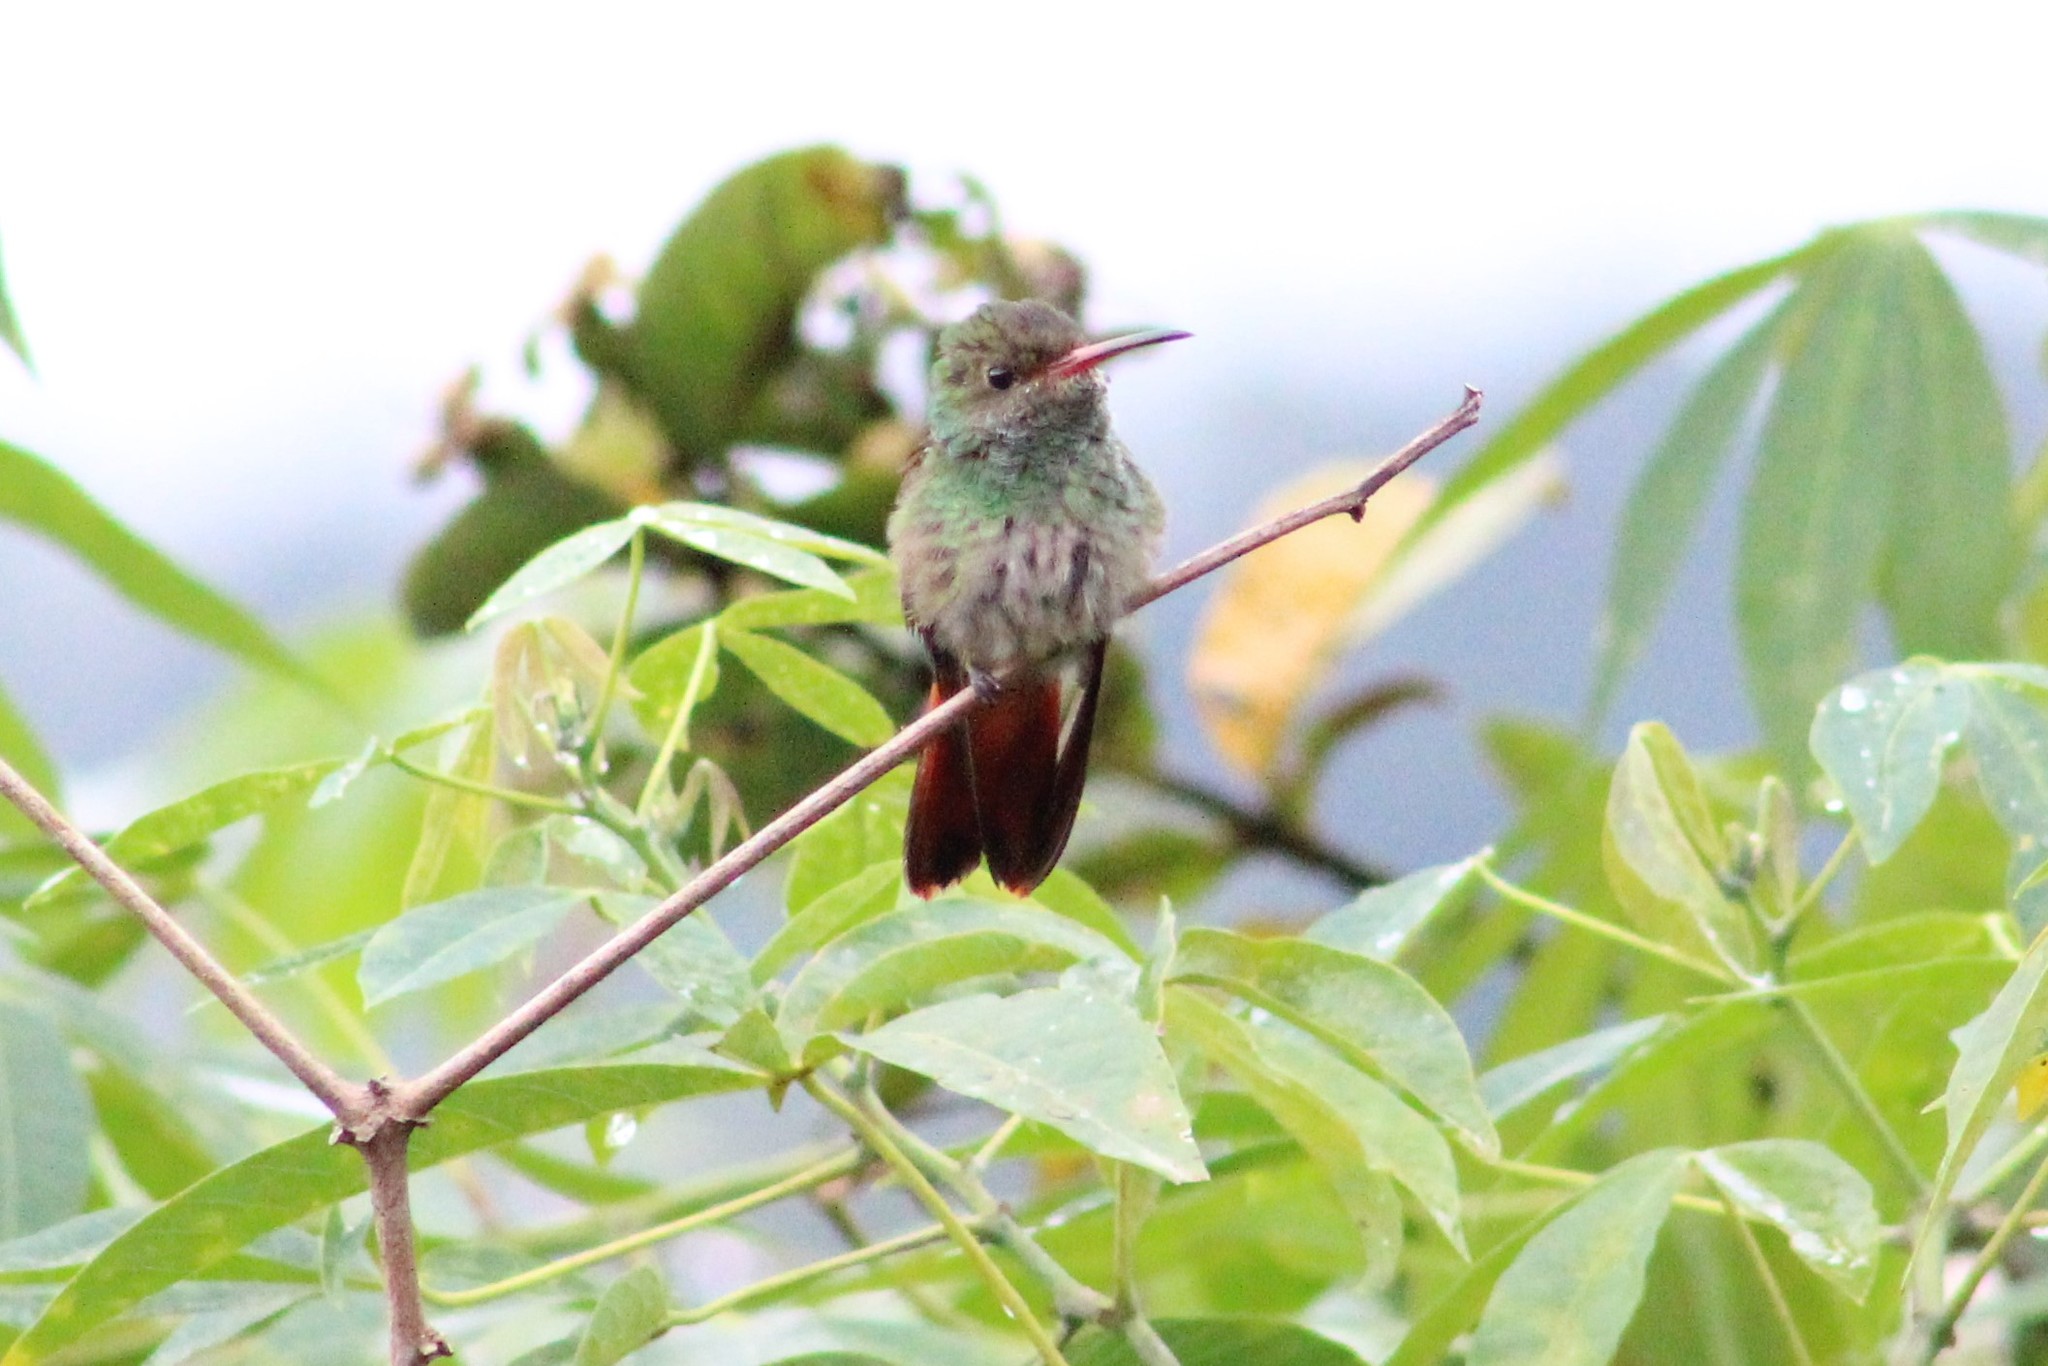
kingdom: Animalia
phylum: Chordata
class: Aves
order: Apodiformes
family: Trochilidae
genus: Amazilia
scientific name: Amazilia tzacatl
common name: Rufous-tailed hummingbird
